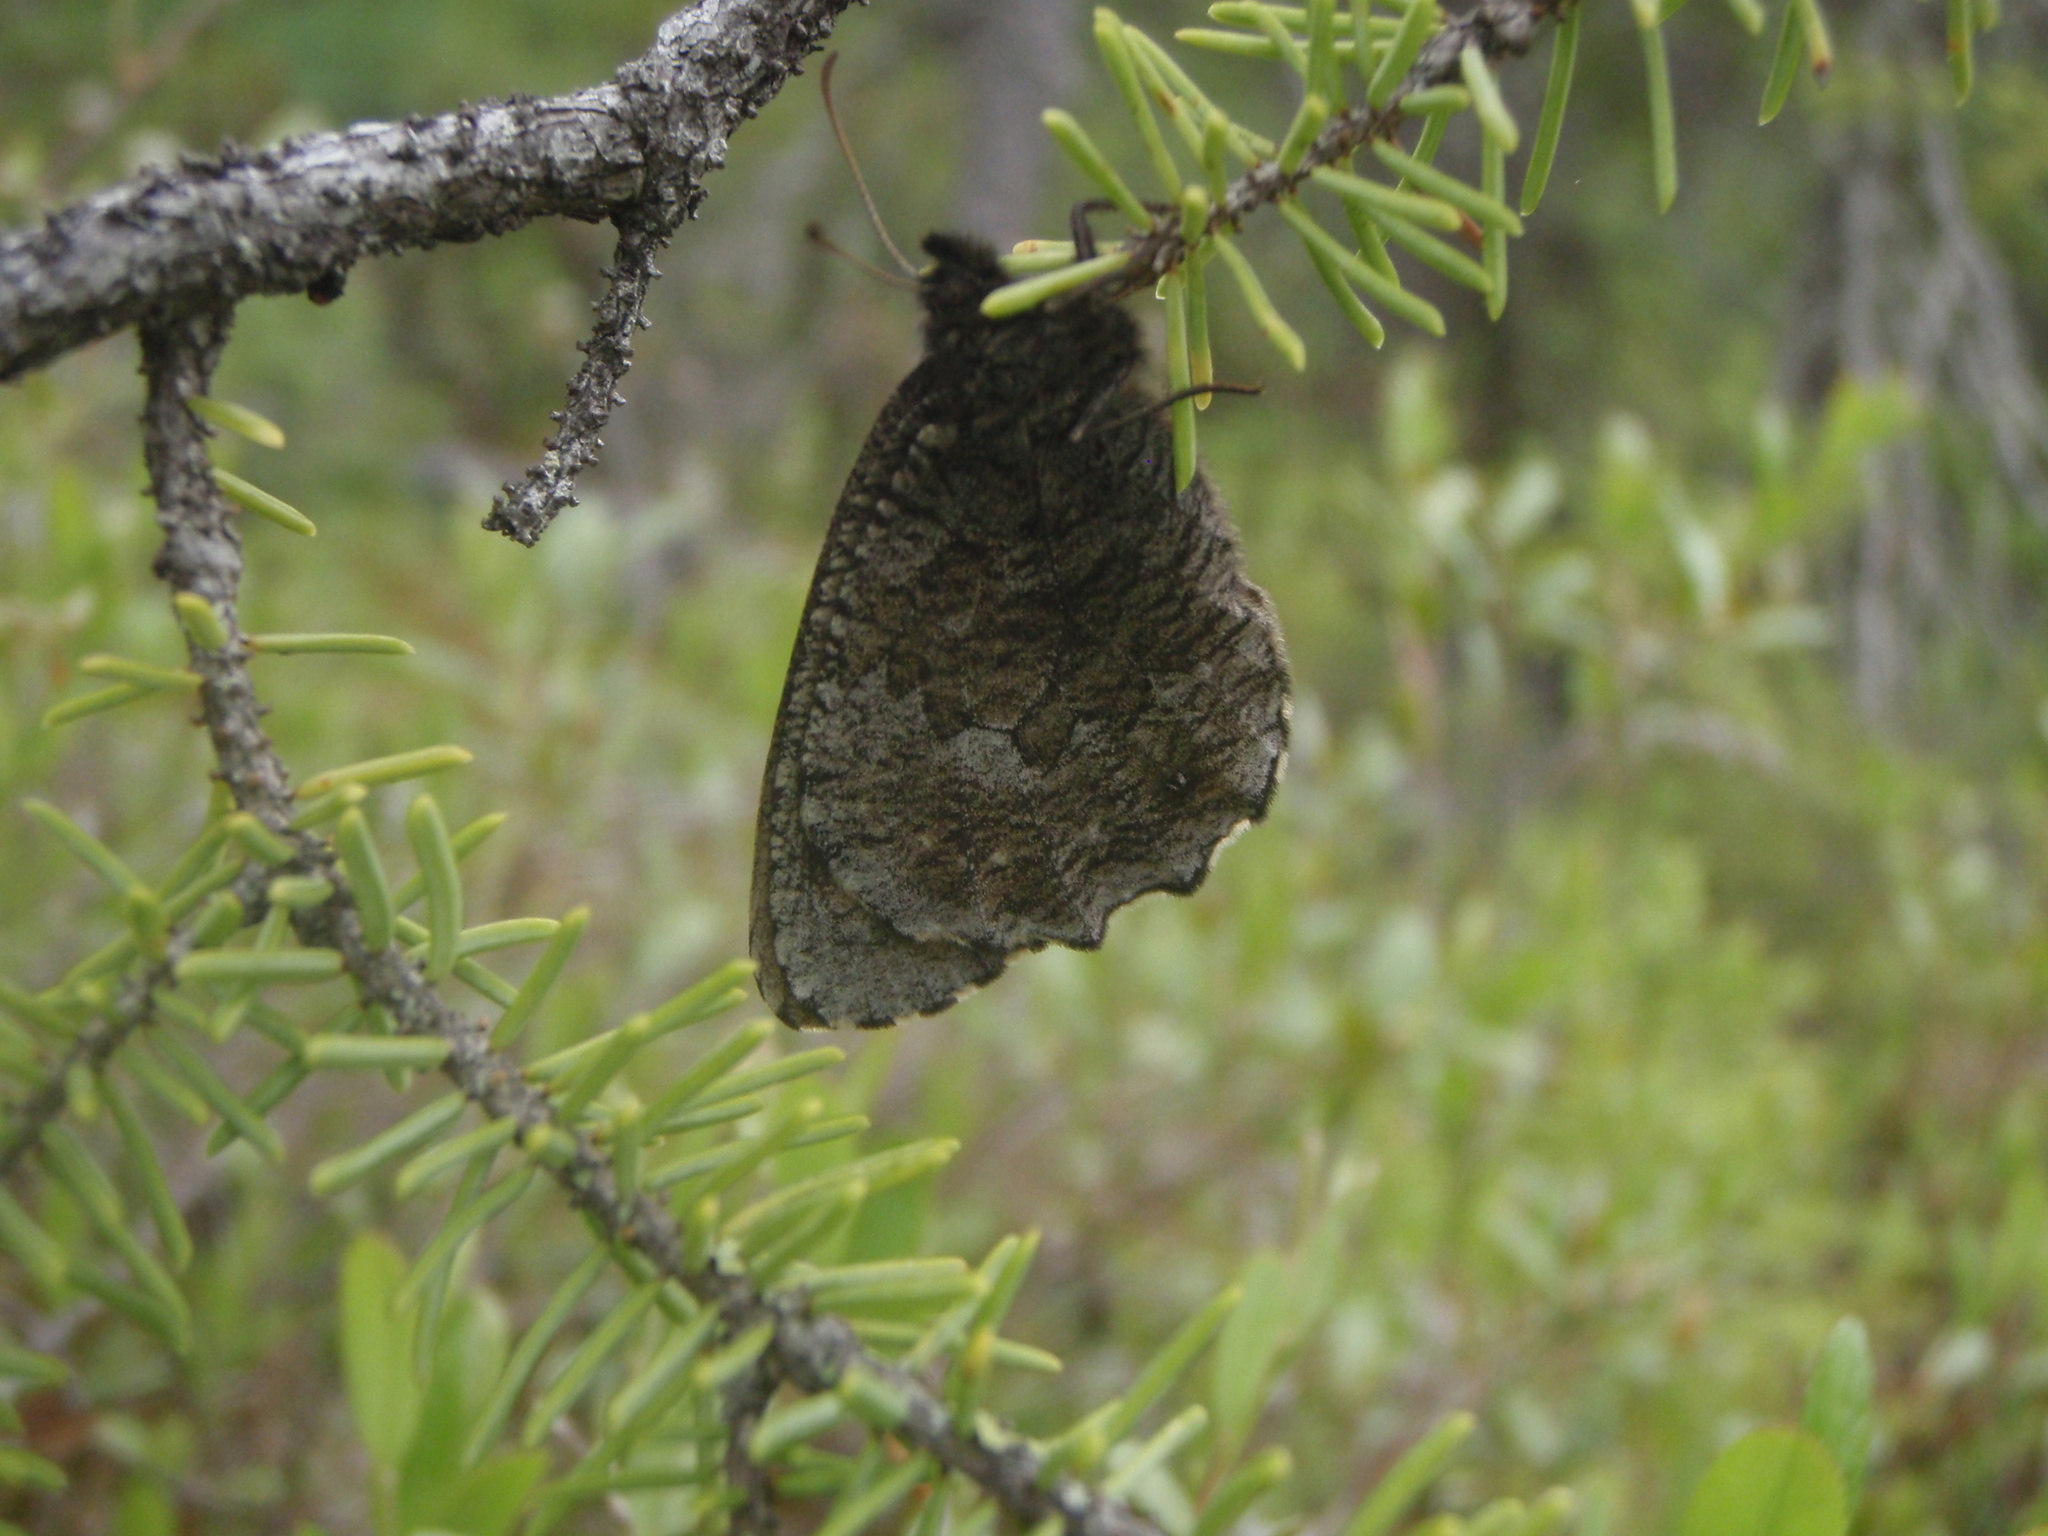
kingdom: Animalia
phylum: Arthropoda
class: Insecta
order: Lepidoptera
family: Nymphalidae
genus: Oeneis
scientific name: Oeneis jutta
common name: Baltic grayling
